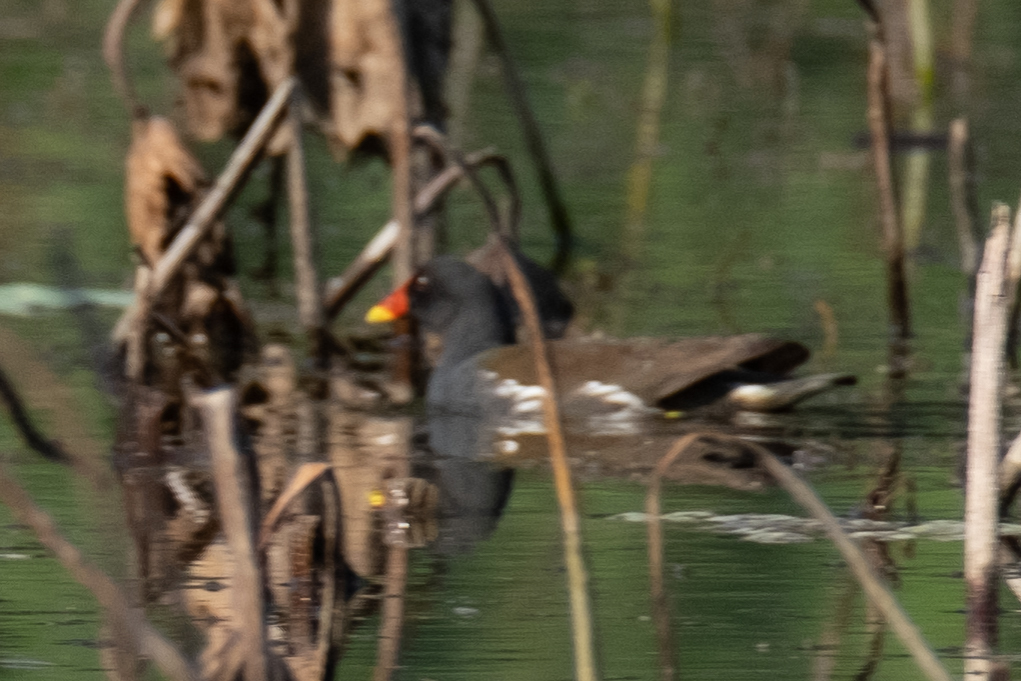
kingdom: Animalia
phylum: Chordata
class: Aves
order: Gruiformes
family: Rallidae
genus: Gallinula
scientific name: Gallinula chloropus
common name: Common moorhen
